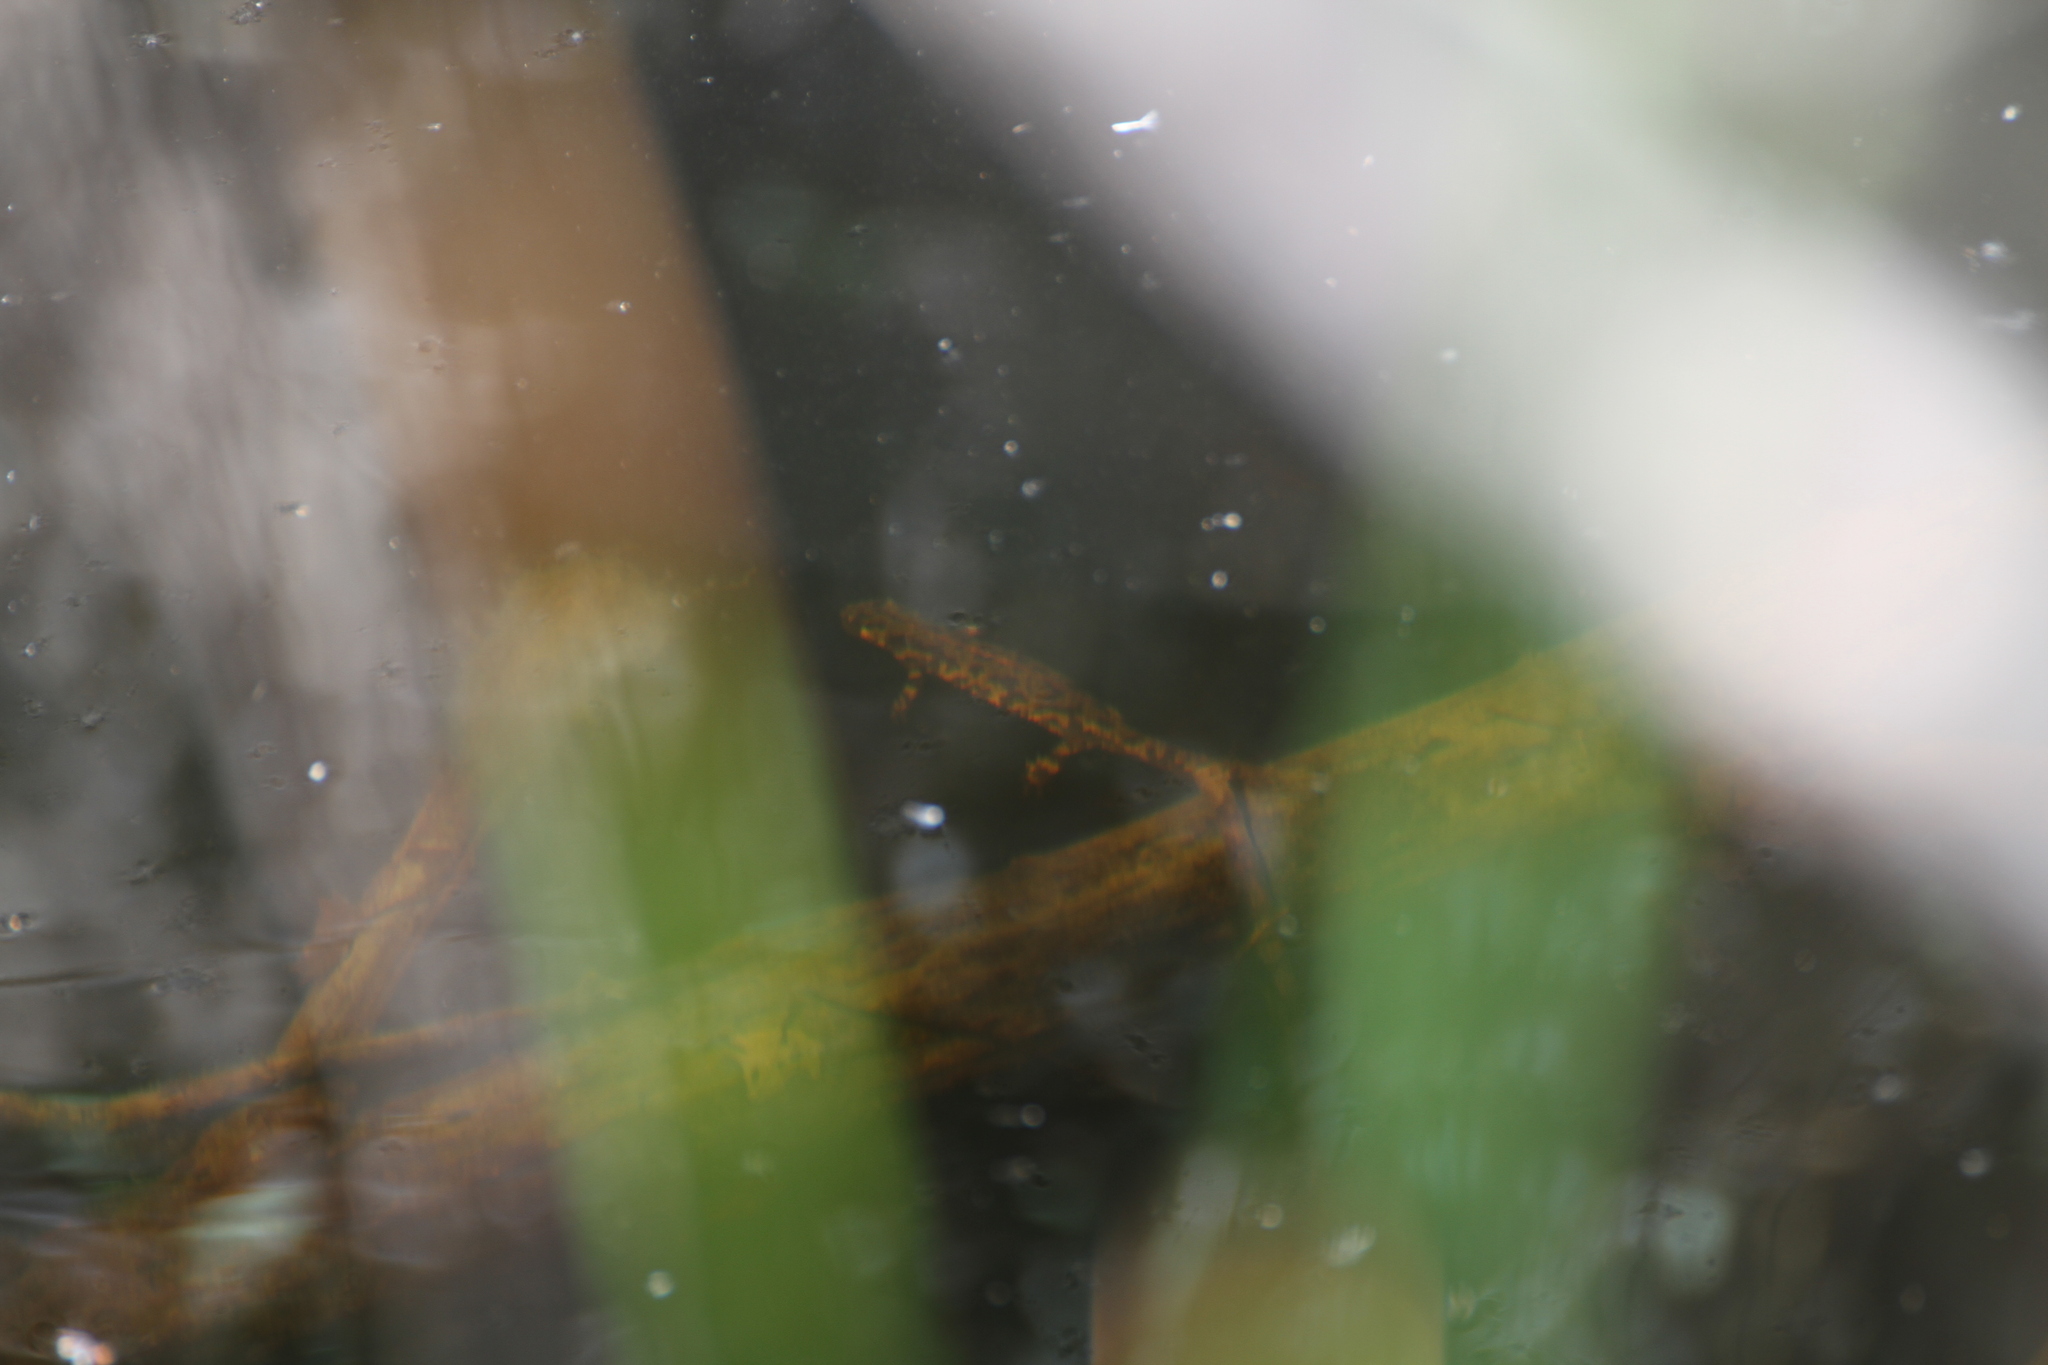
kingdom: Animalia
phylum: Chordata
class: Amphibia
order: Caudata
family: Salamandridae
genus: Triturus
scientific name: Triturus marmoratus
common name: Marbled newt
